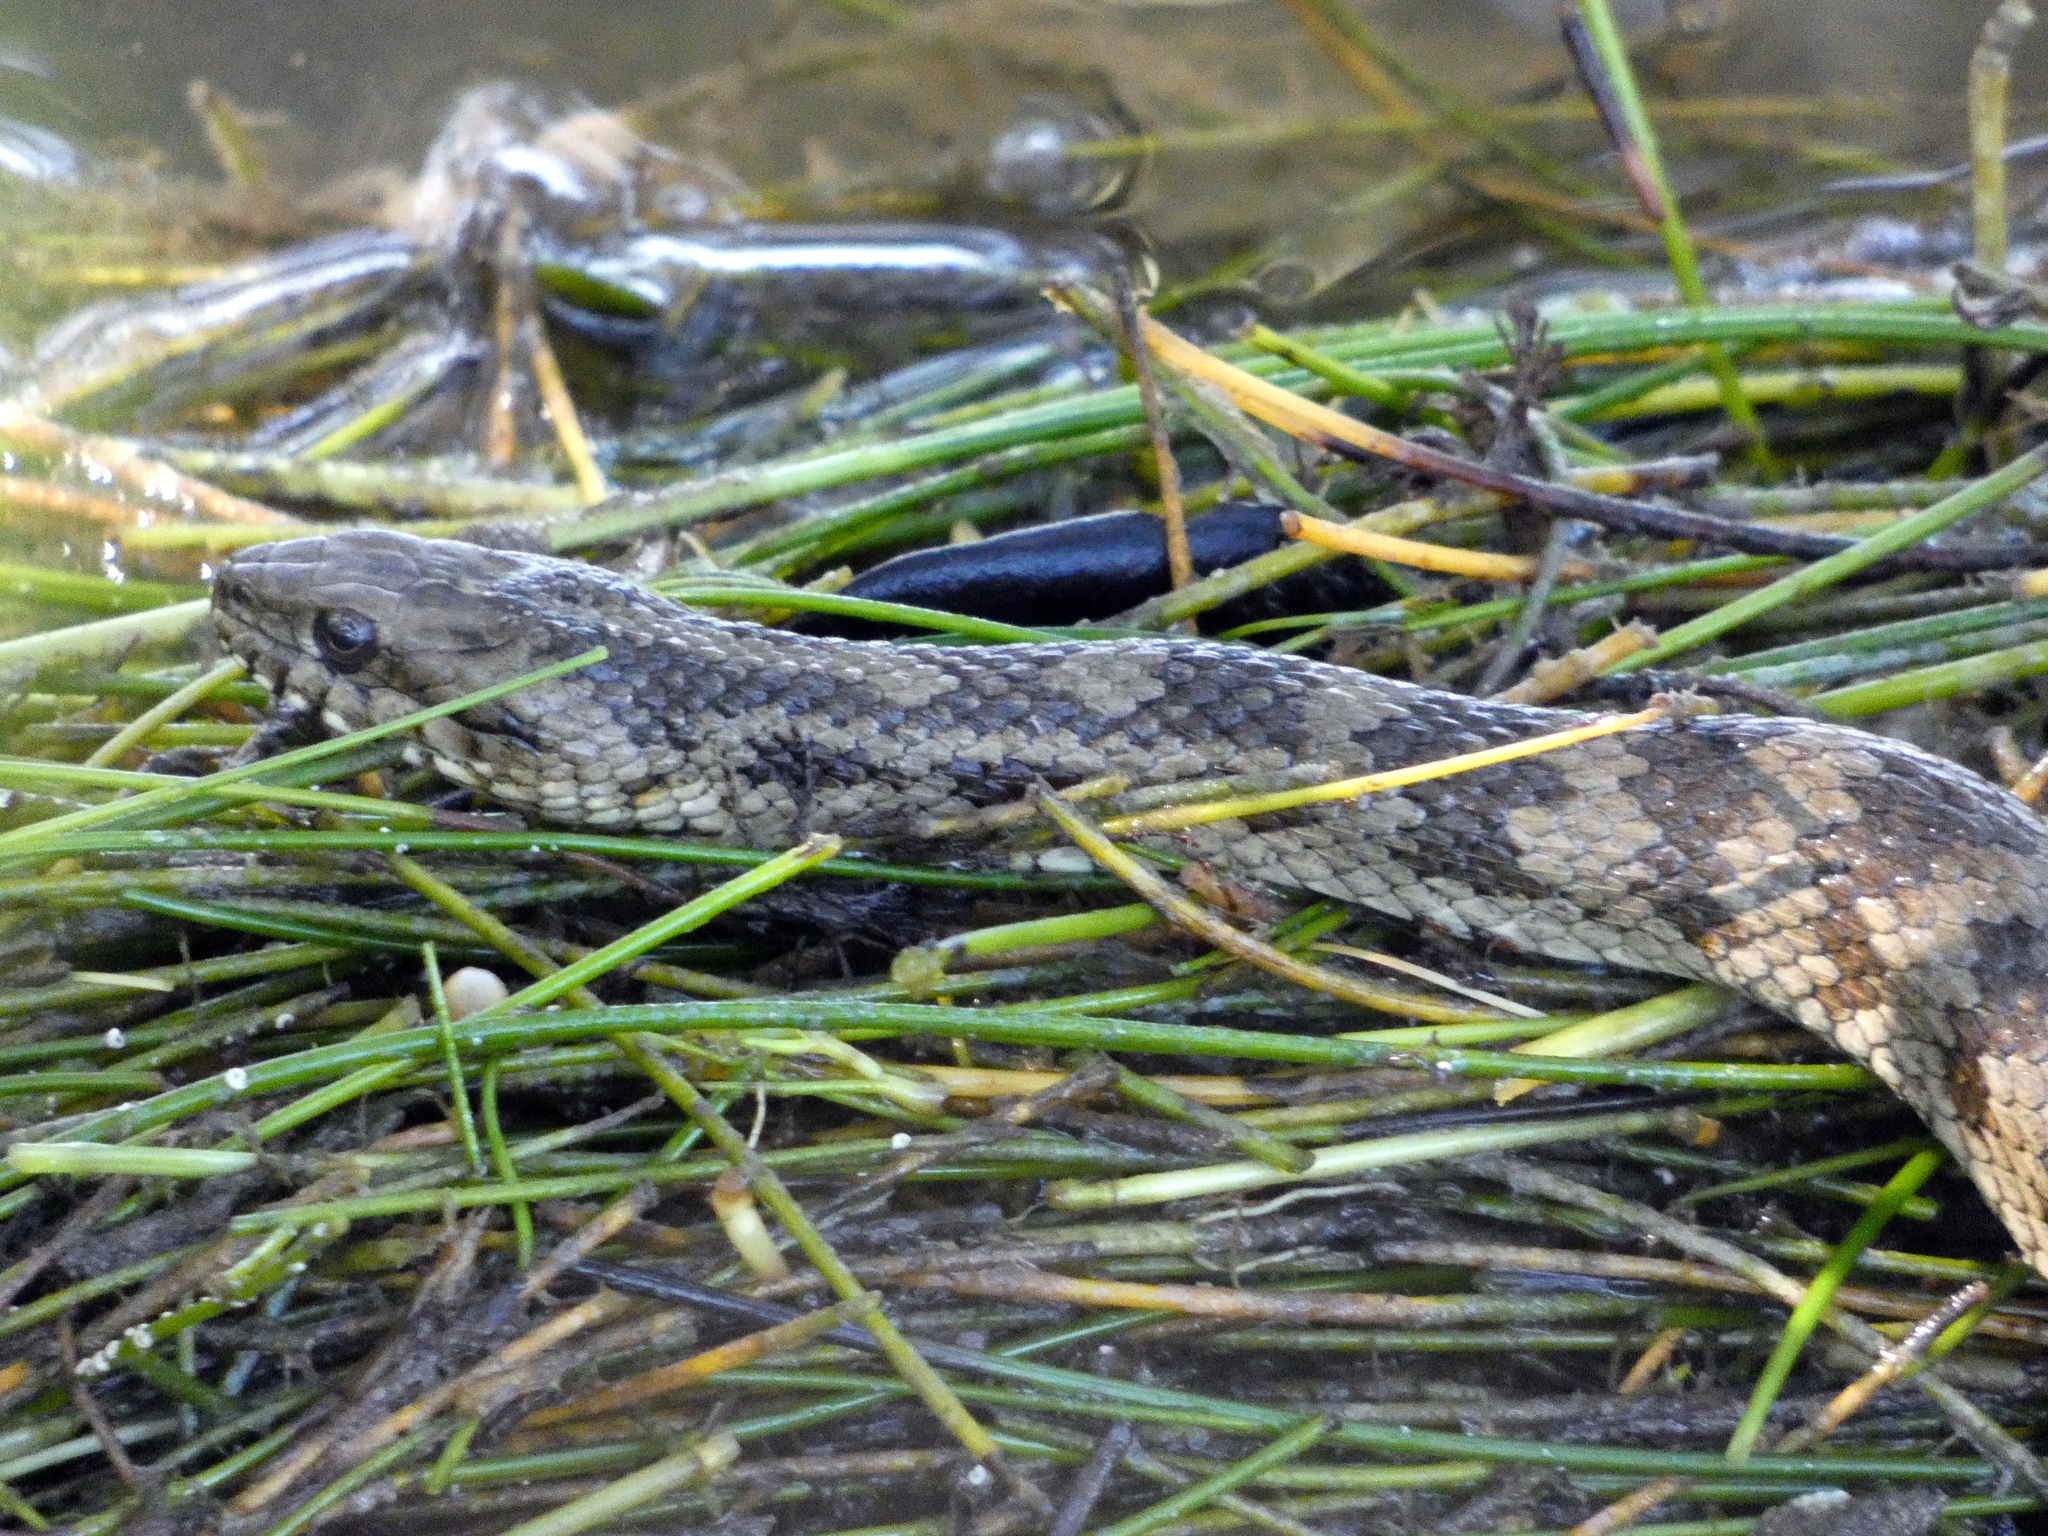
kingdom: Animalia
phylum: Chordata
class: Squamata
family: Colubridae
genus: Nerodia
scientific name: Nerodia clarkii
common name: Atlantic saltmarsh snake
